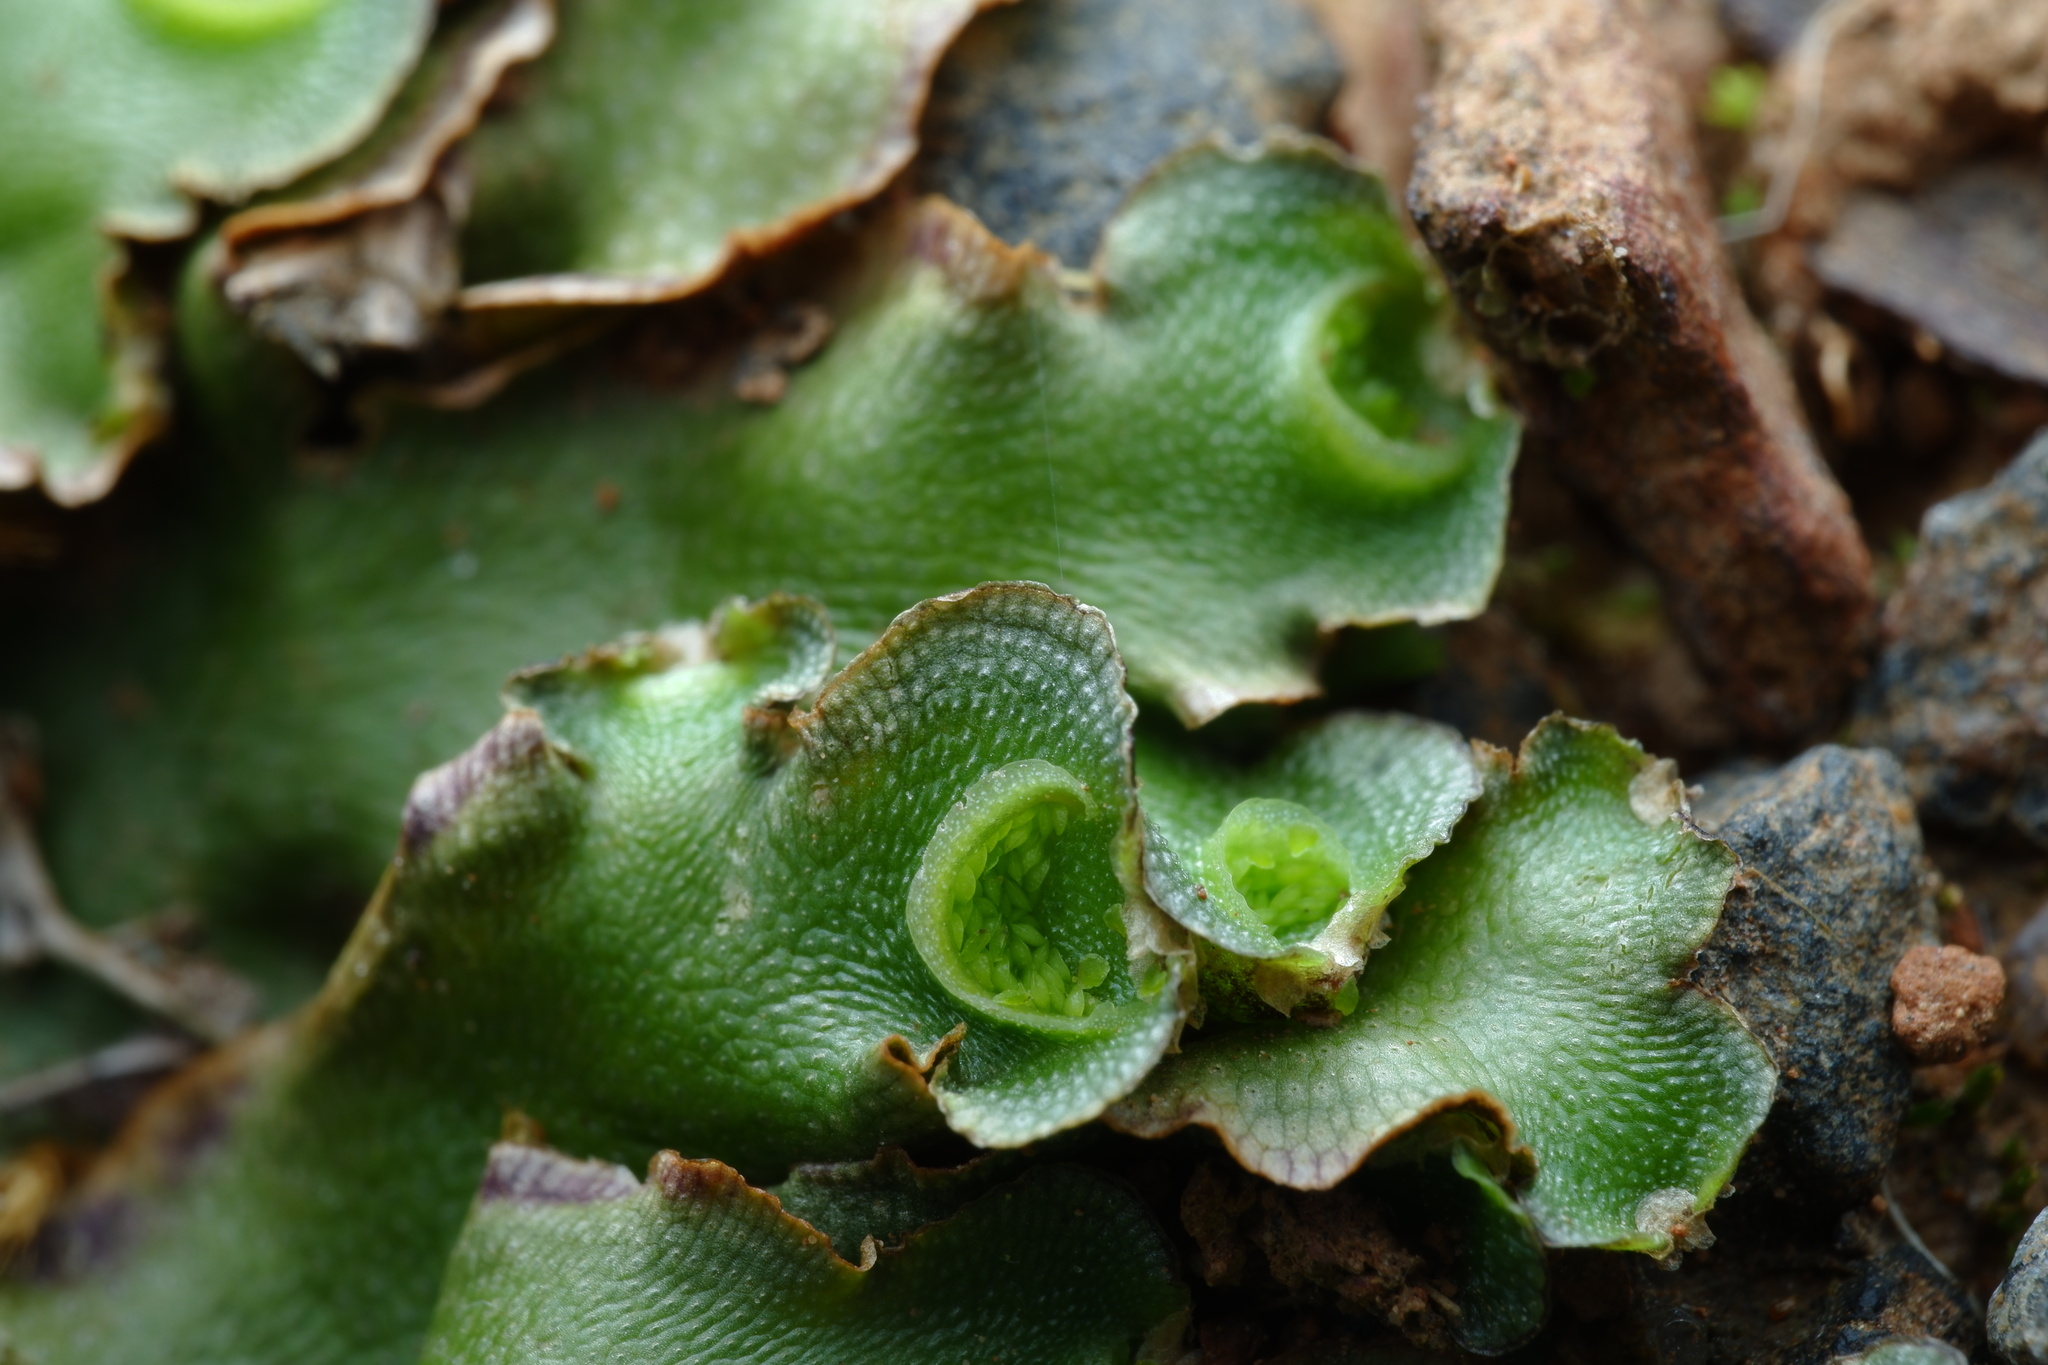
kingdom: Plantae
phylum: Marchantiophyta
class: Marchantiopsida
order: Lunulariales
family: Lunulariaceae
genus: Lunularia
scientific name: Lunularia cruciata
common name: Crescent-cup liverwort
